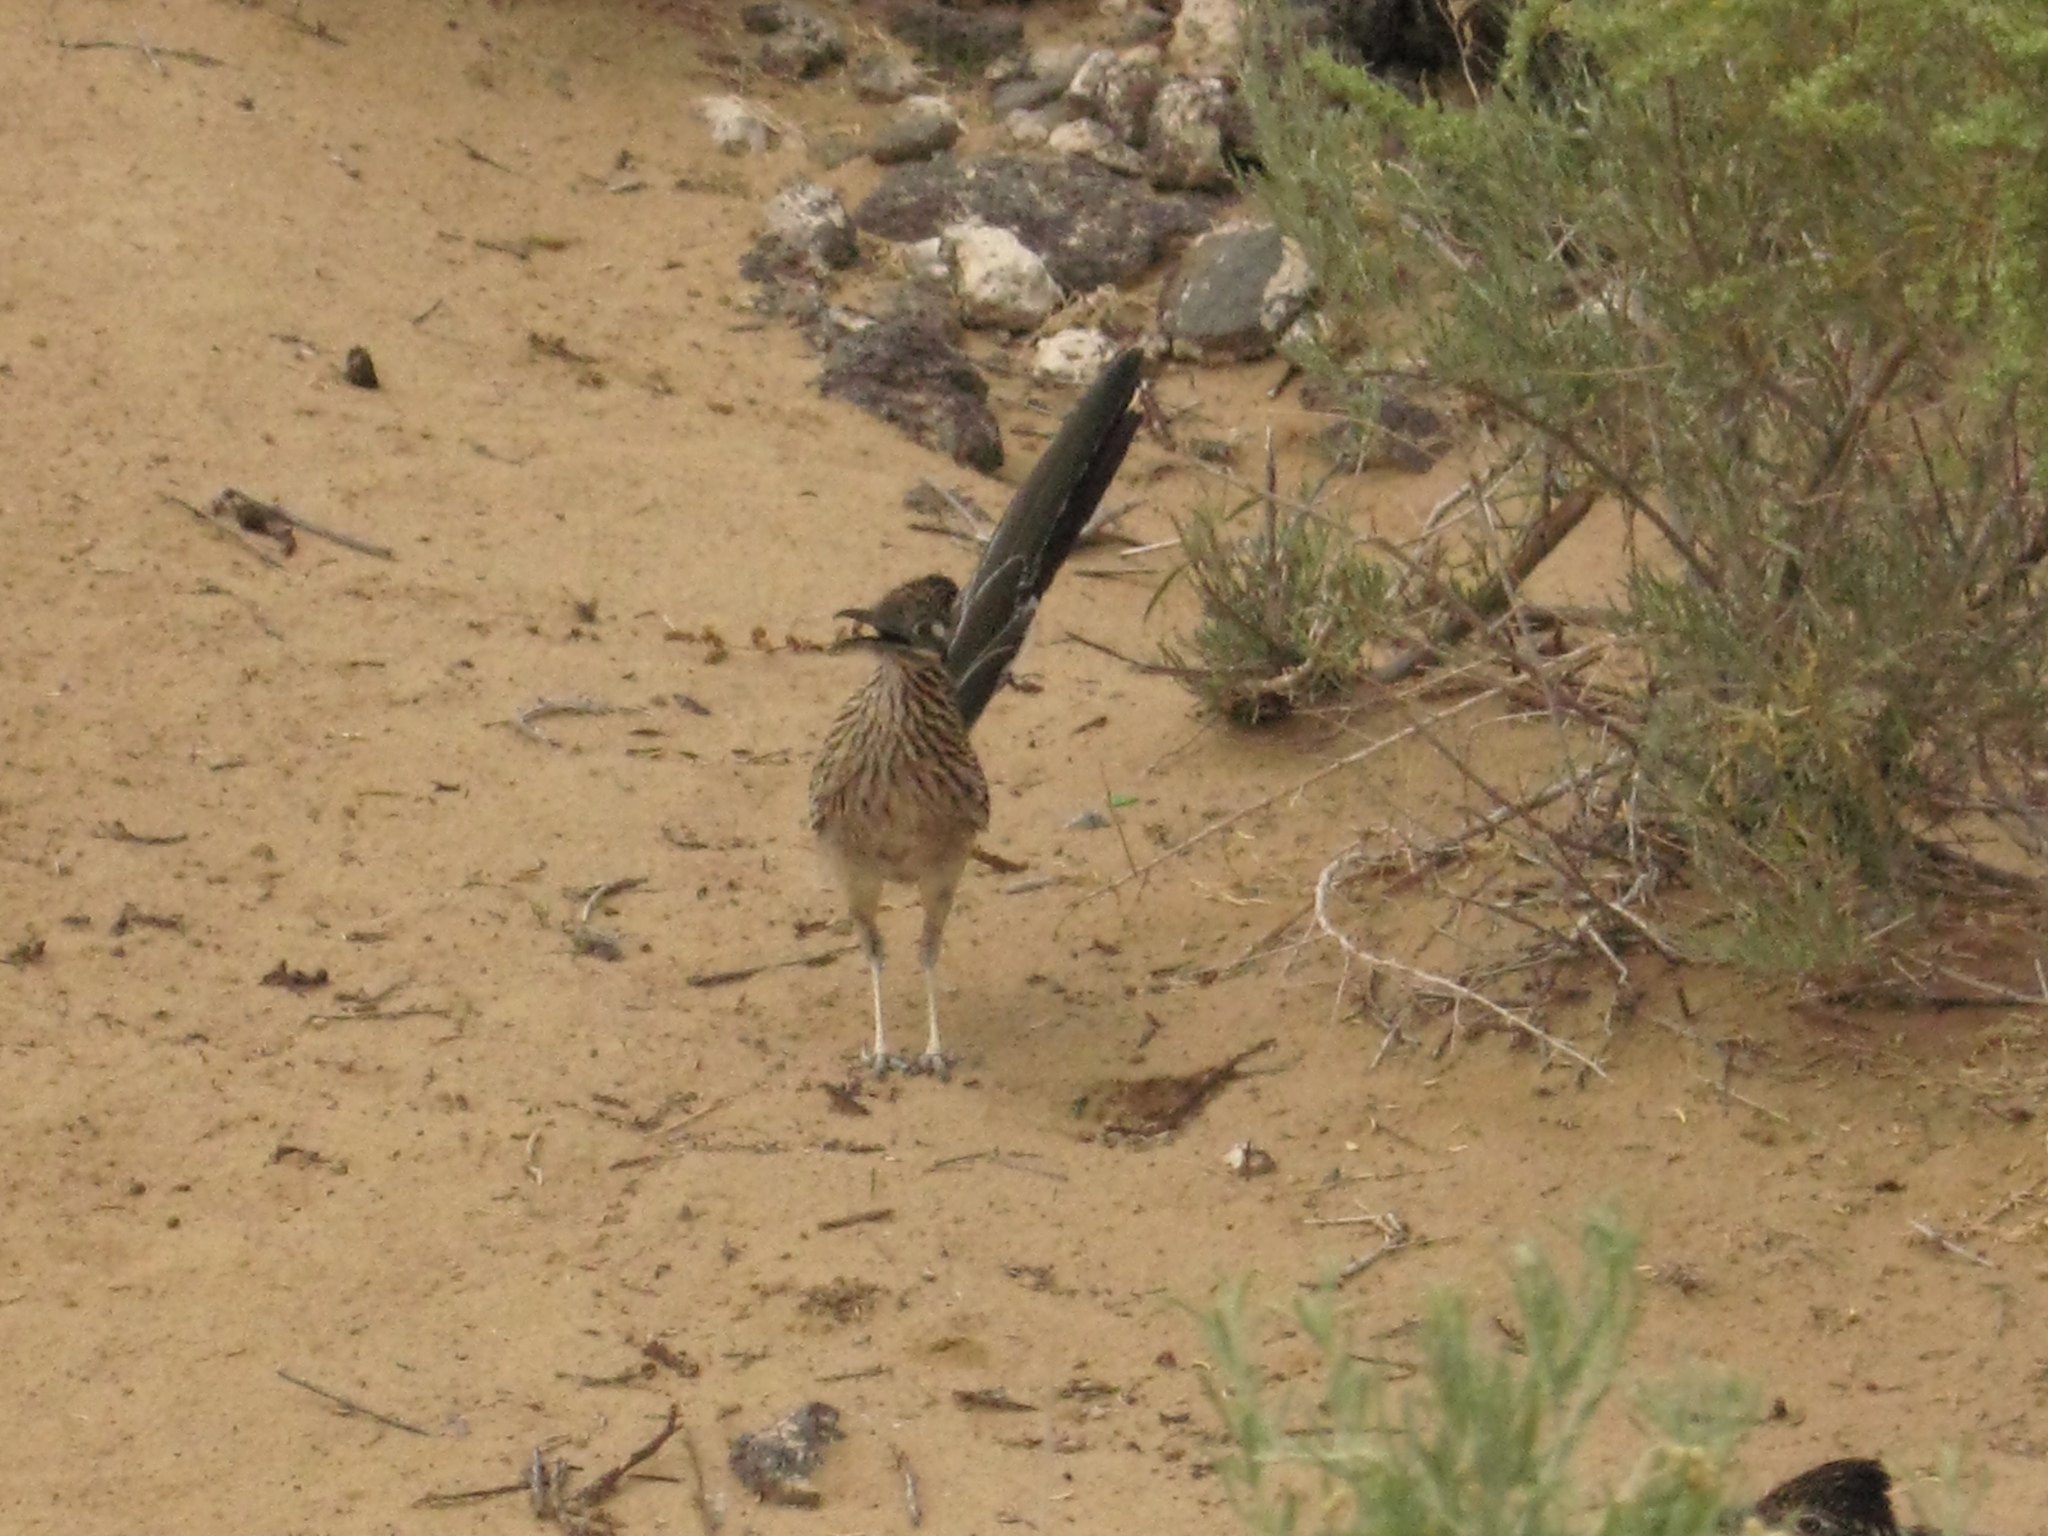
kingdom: Animalia
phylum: Chordata
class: Aves
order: Cuculiformes
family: Cuculidae
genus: Geococcyx
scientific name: Geococcyx californianus
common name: Greater roadrunner
